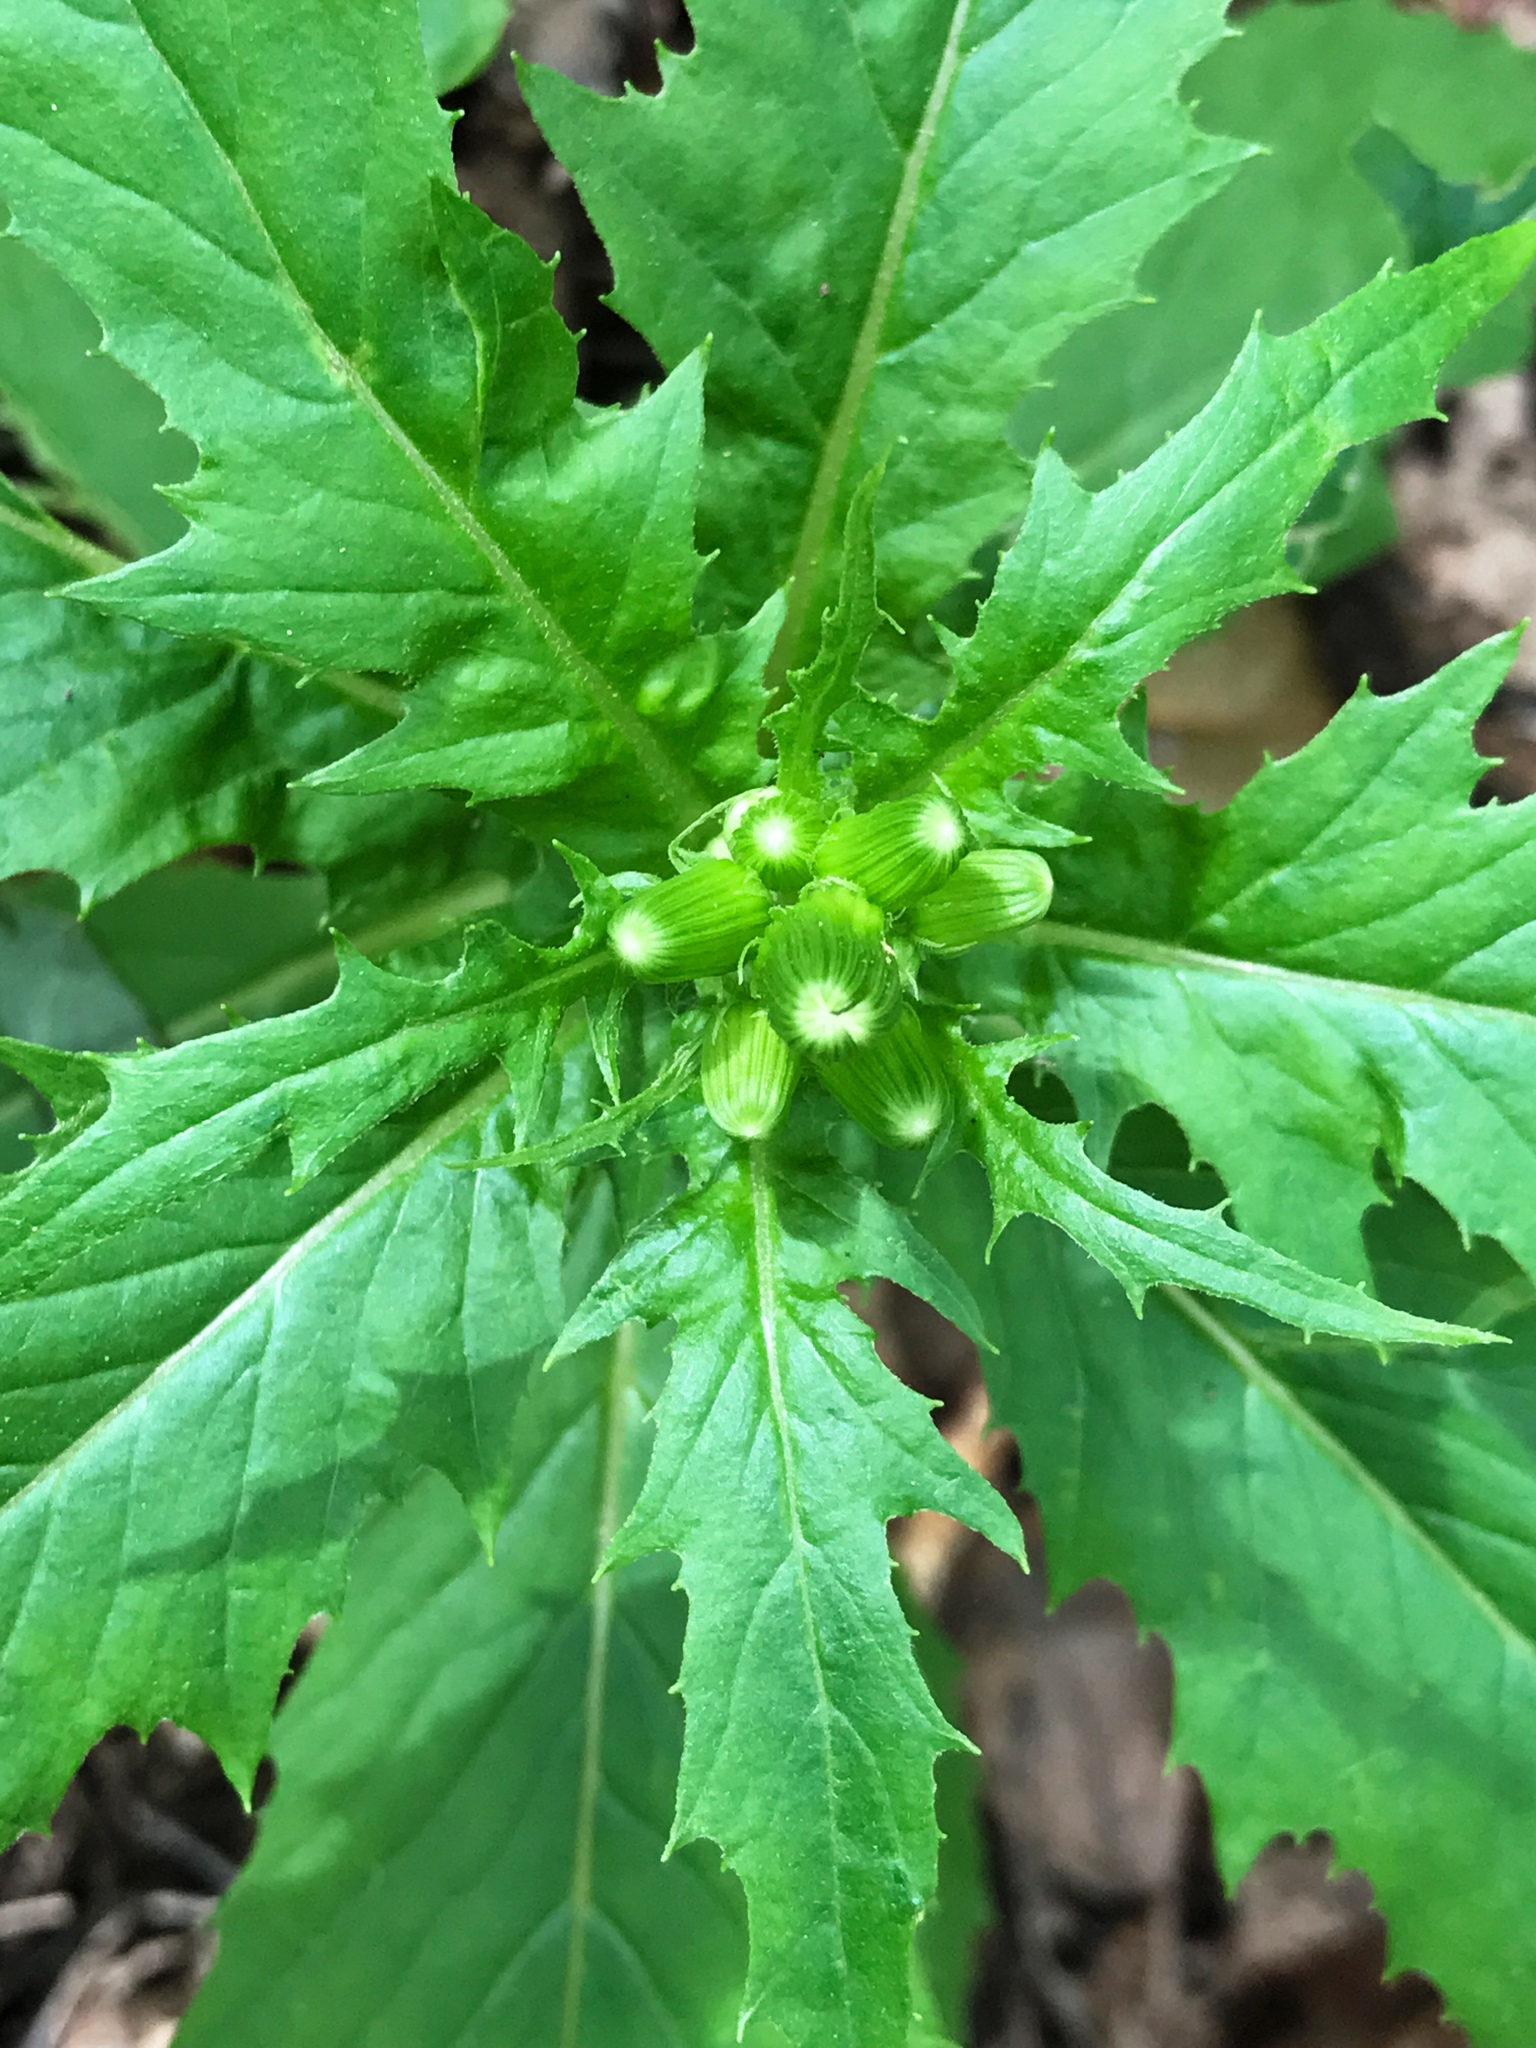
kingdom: Plantae
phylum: Tracheophyta
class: Magnoliopsida
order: Asterales
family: Asteraceae
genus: Erechtites
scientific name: Erechtites hieraciifolius
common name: American burnweed
